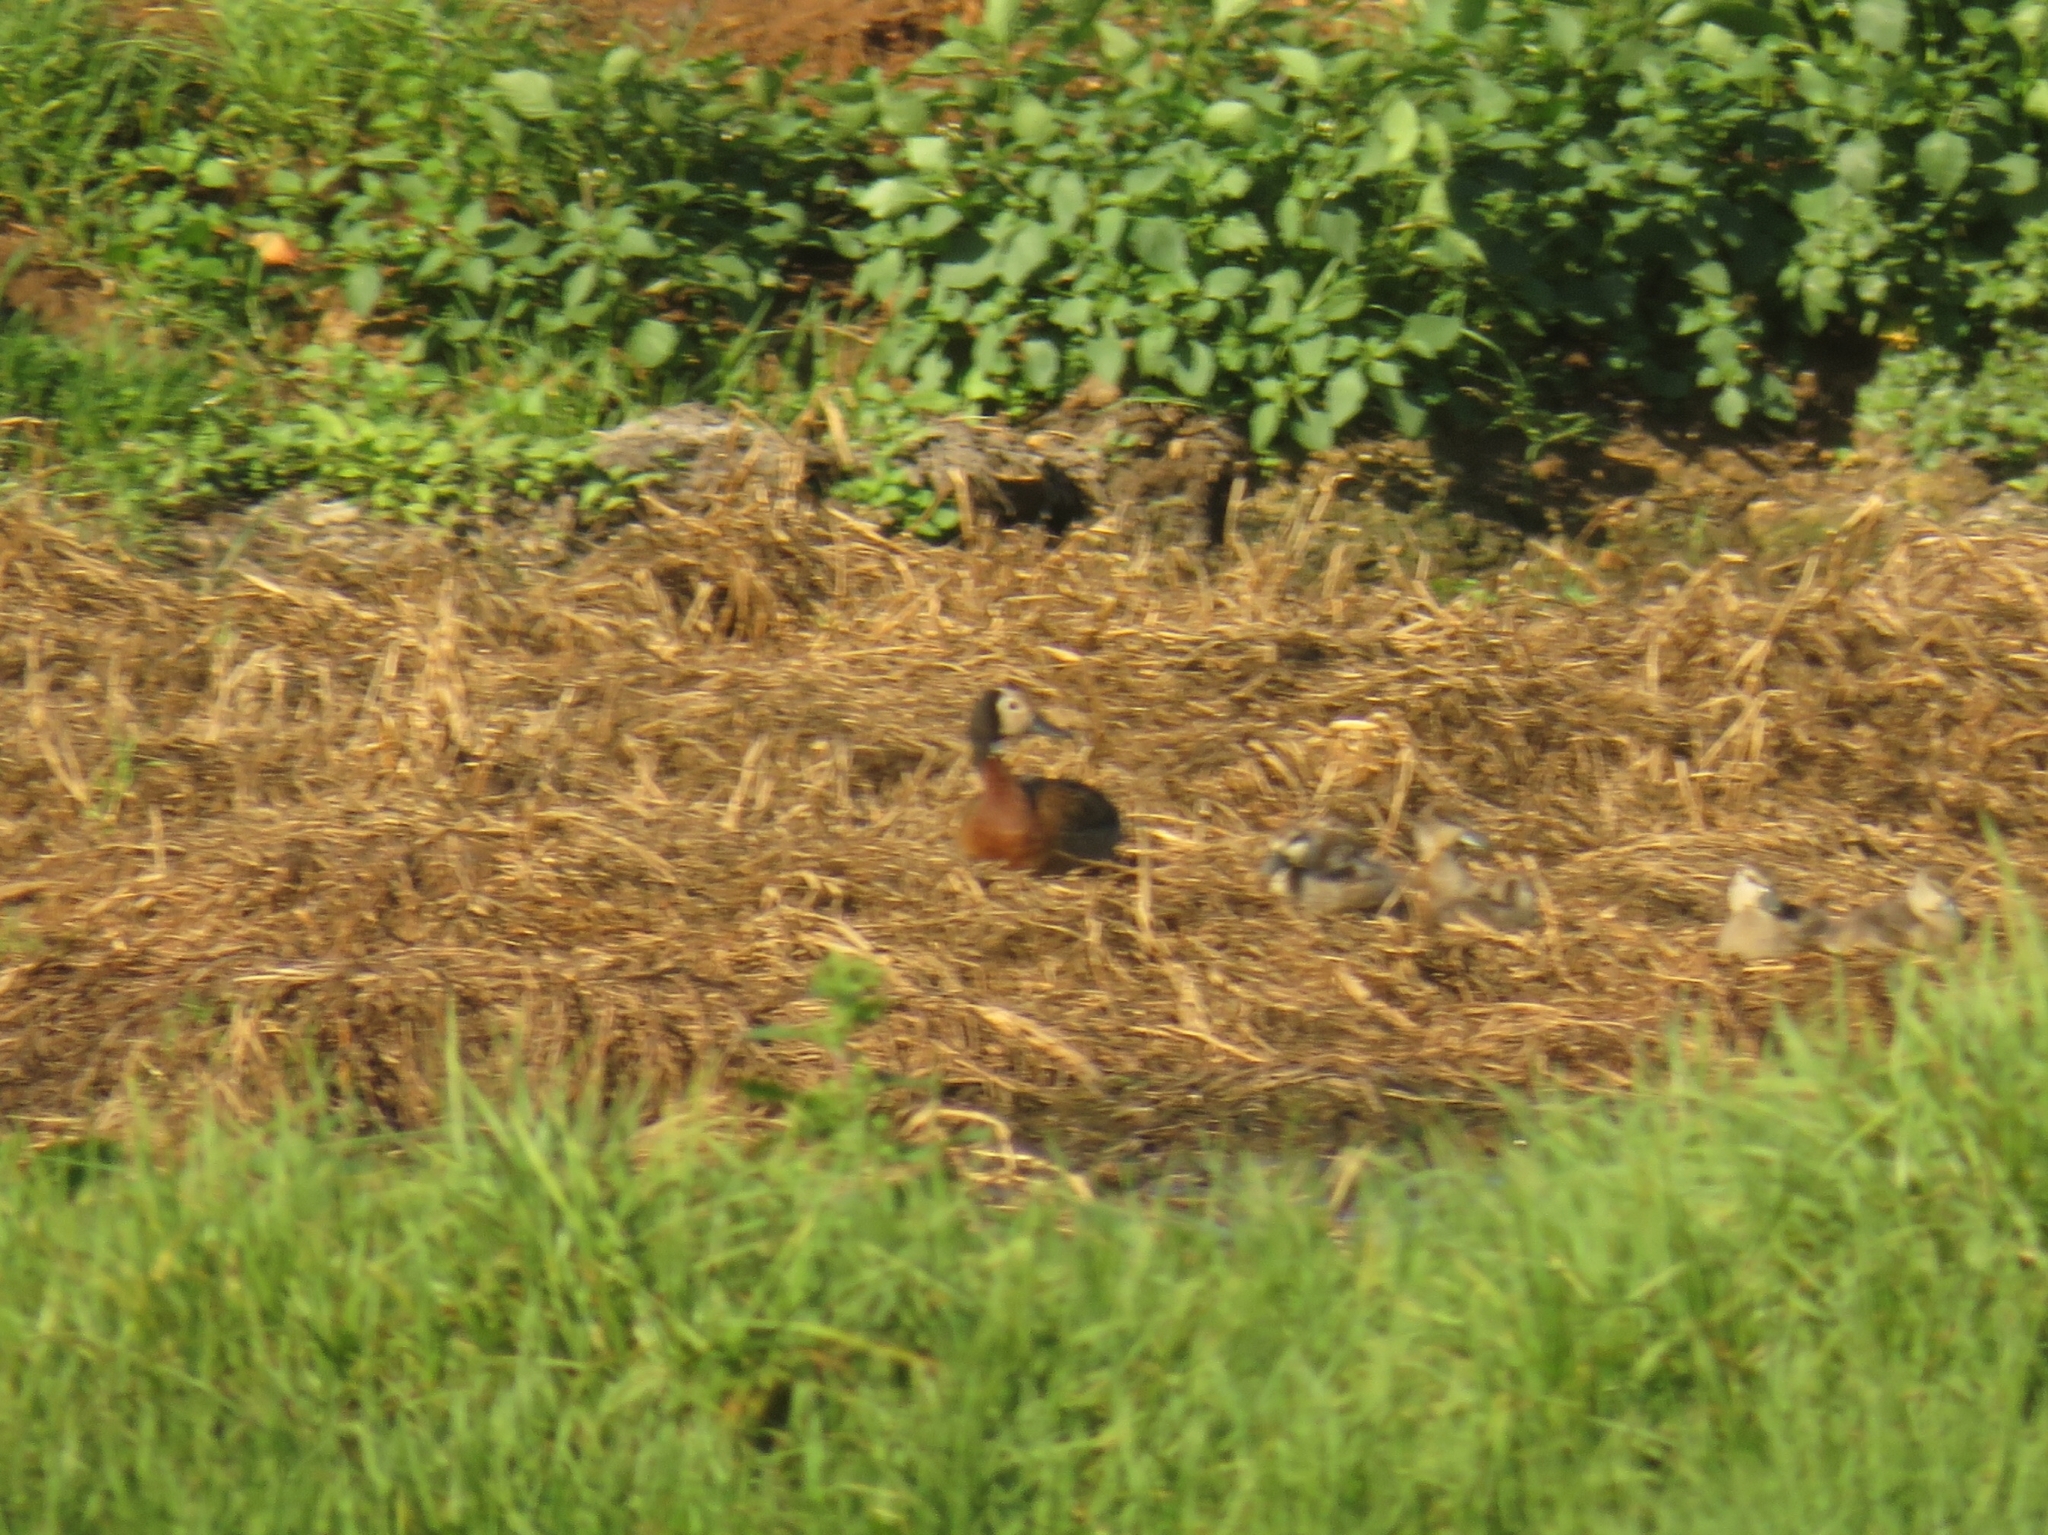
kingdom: Animalia
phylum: Chordata
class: Aves
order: Anseriformes
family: Anatidae
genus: Dendrocygna
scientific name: Dendrocygna viduata
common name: White-faced whistling duck
